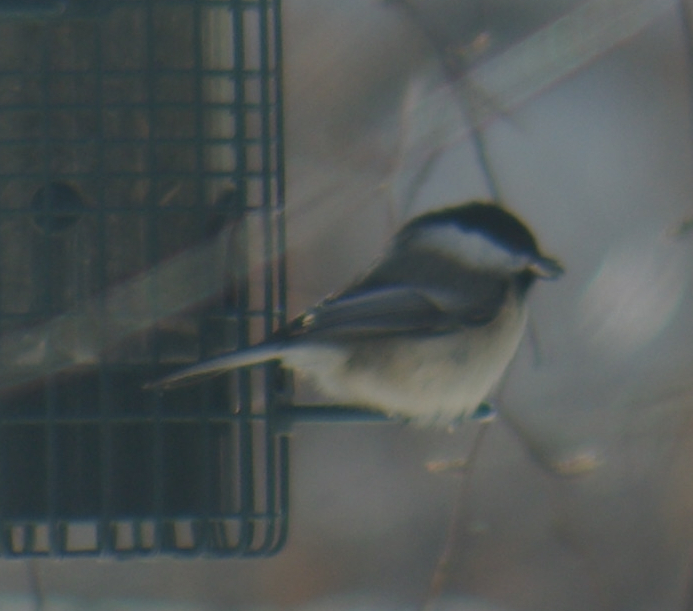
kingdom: Animalia
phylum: Chordata
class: Aves
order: Passeriformes
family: Paridae
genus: Poecile
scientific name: Poecile atricapillus
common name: Black-capped chickadee
